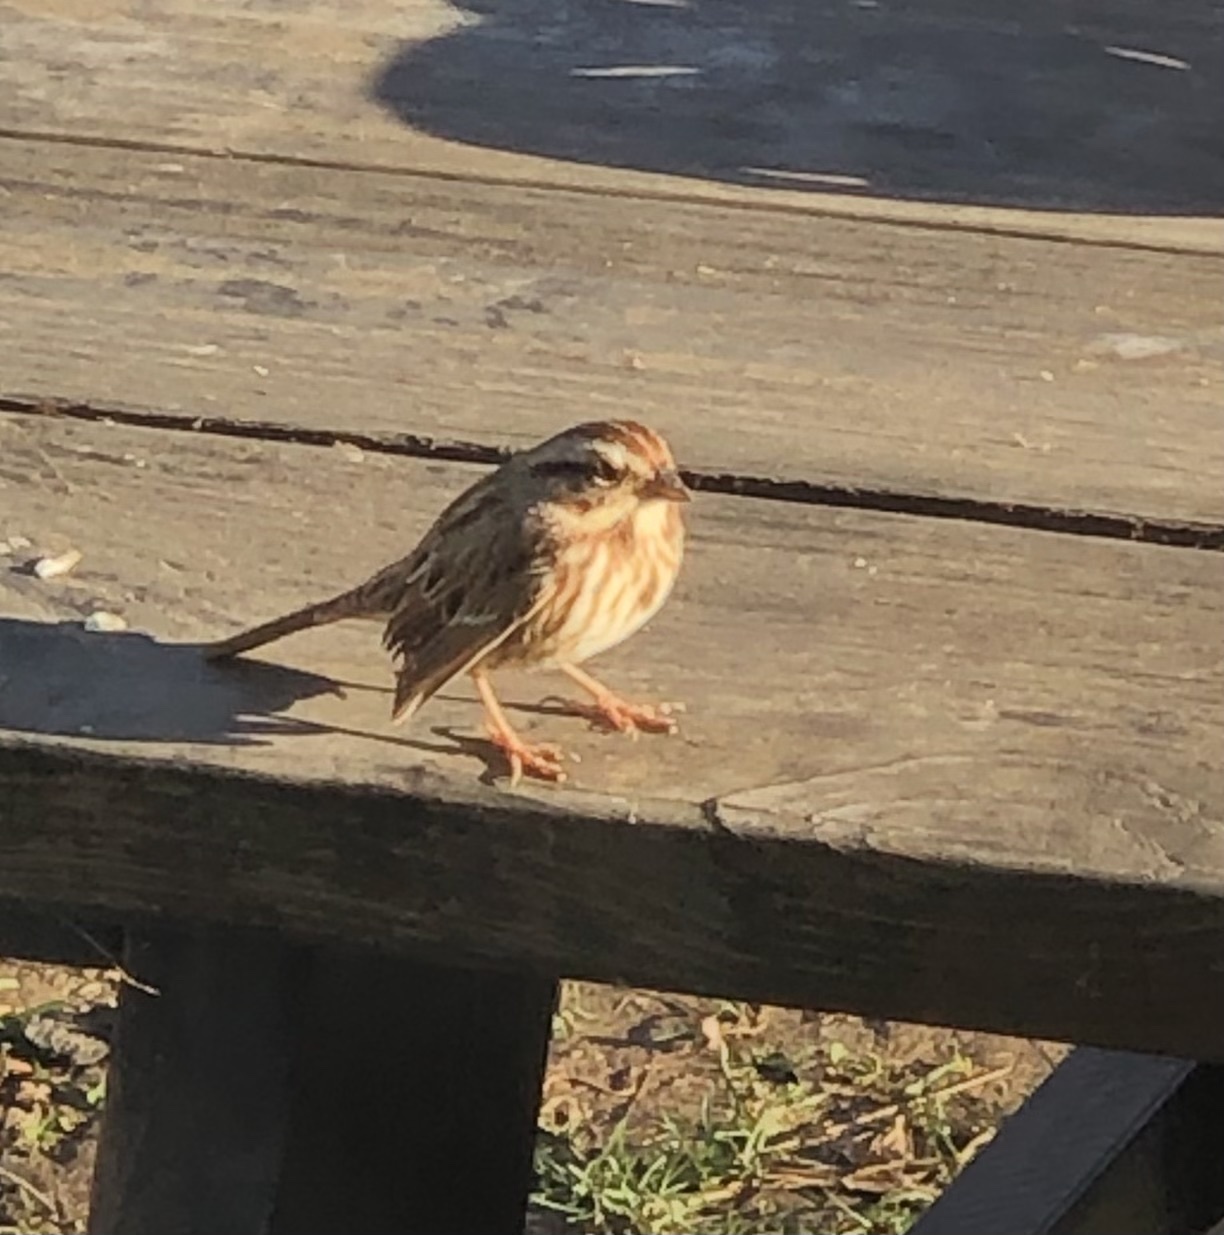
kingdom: Animalia
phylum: Chordata
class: Aves
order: Passeriformes
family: Passerellidae
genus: Melospiza
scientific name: Melospiza melodia
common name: Song sparrow
